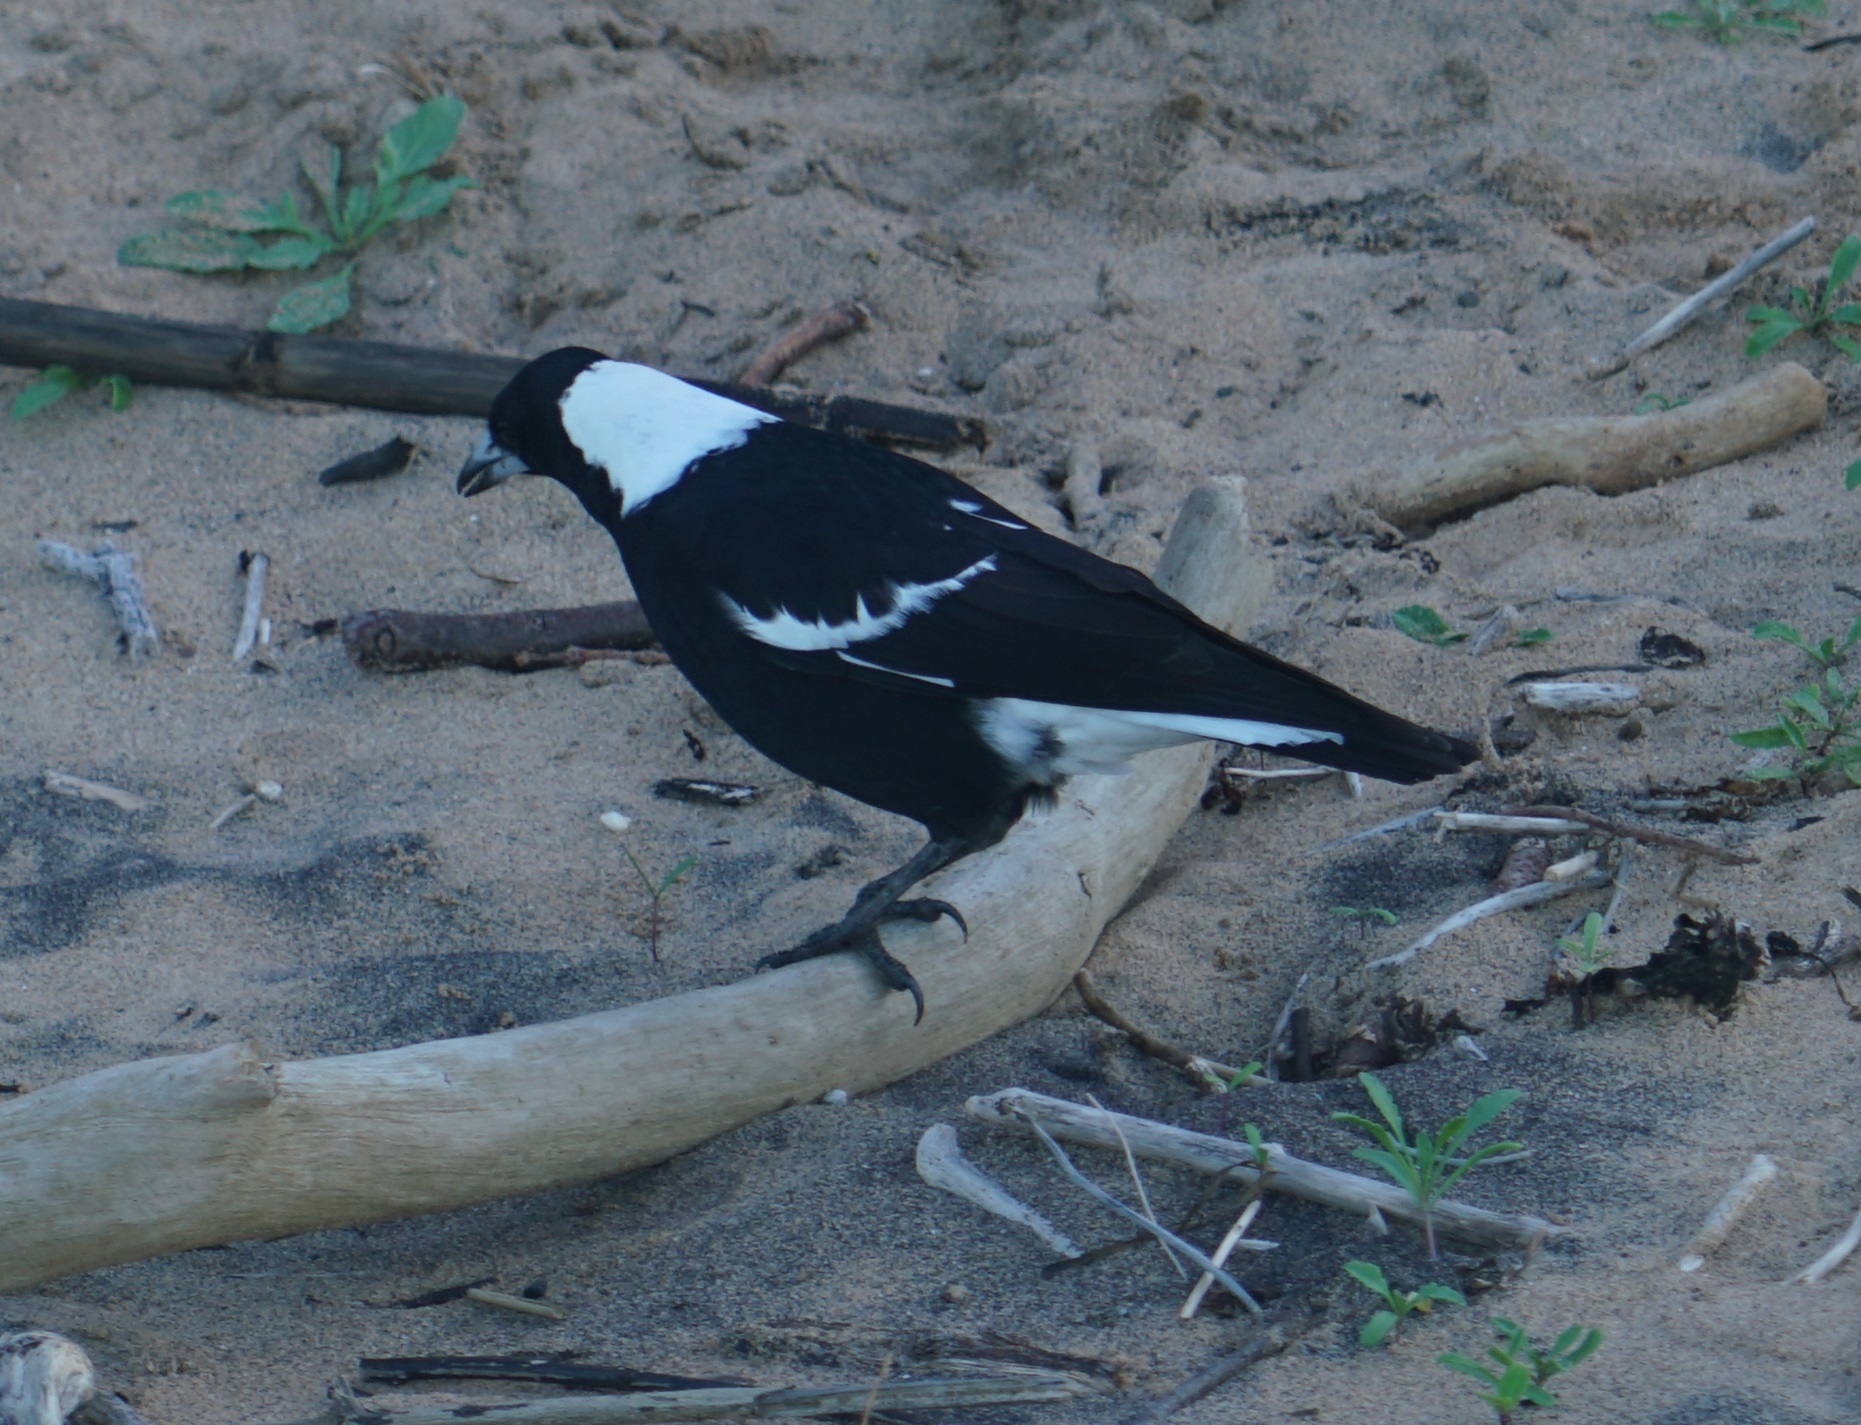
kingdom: Animalia
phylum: Chordata
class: Aves
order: Passeriformes
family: Cracticidae
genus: Gymnorhina
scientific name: Gymnorhina tibicen
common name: Australian magpie
